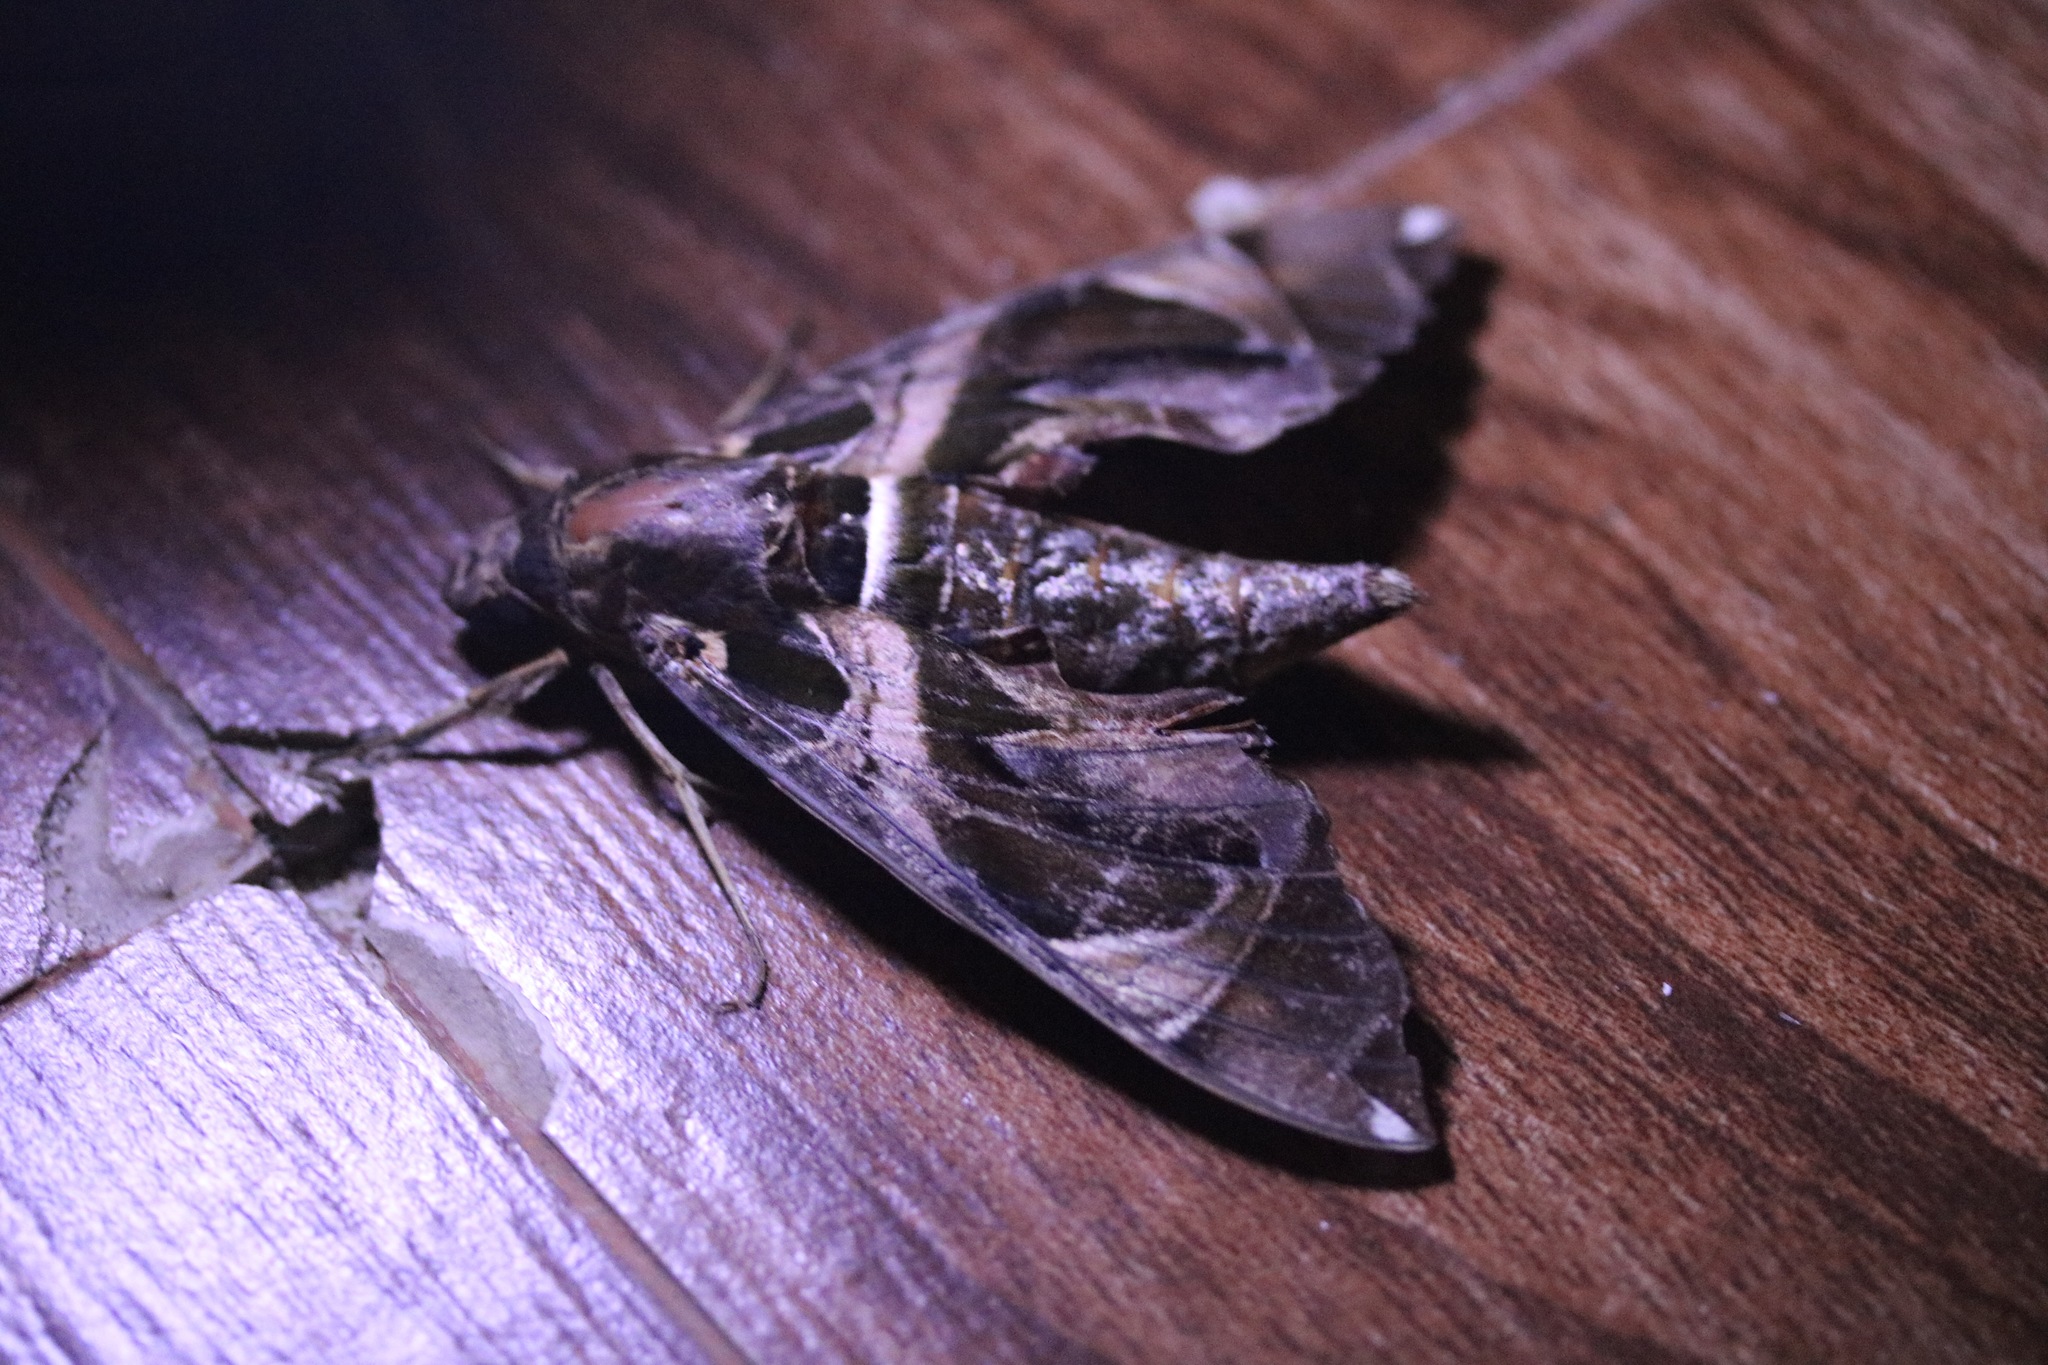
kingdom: Animalia
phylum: Arthropoda
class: Insecta
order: Lepidoptera
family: Sphingidae
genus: Daphnis
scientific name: Daphnis hypothous
